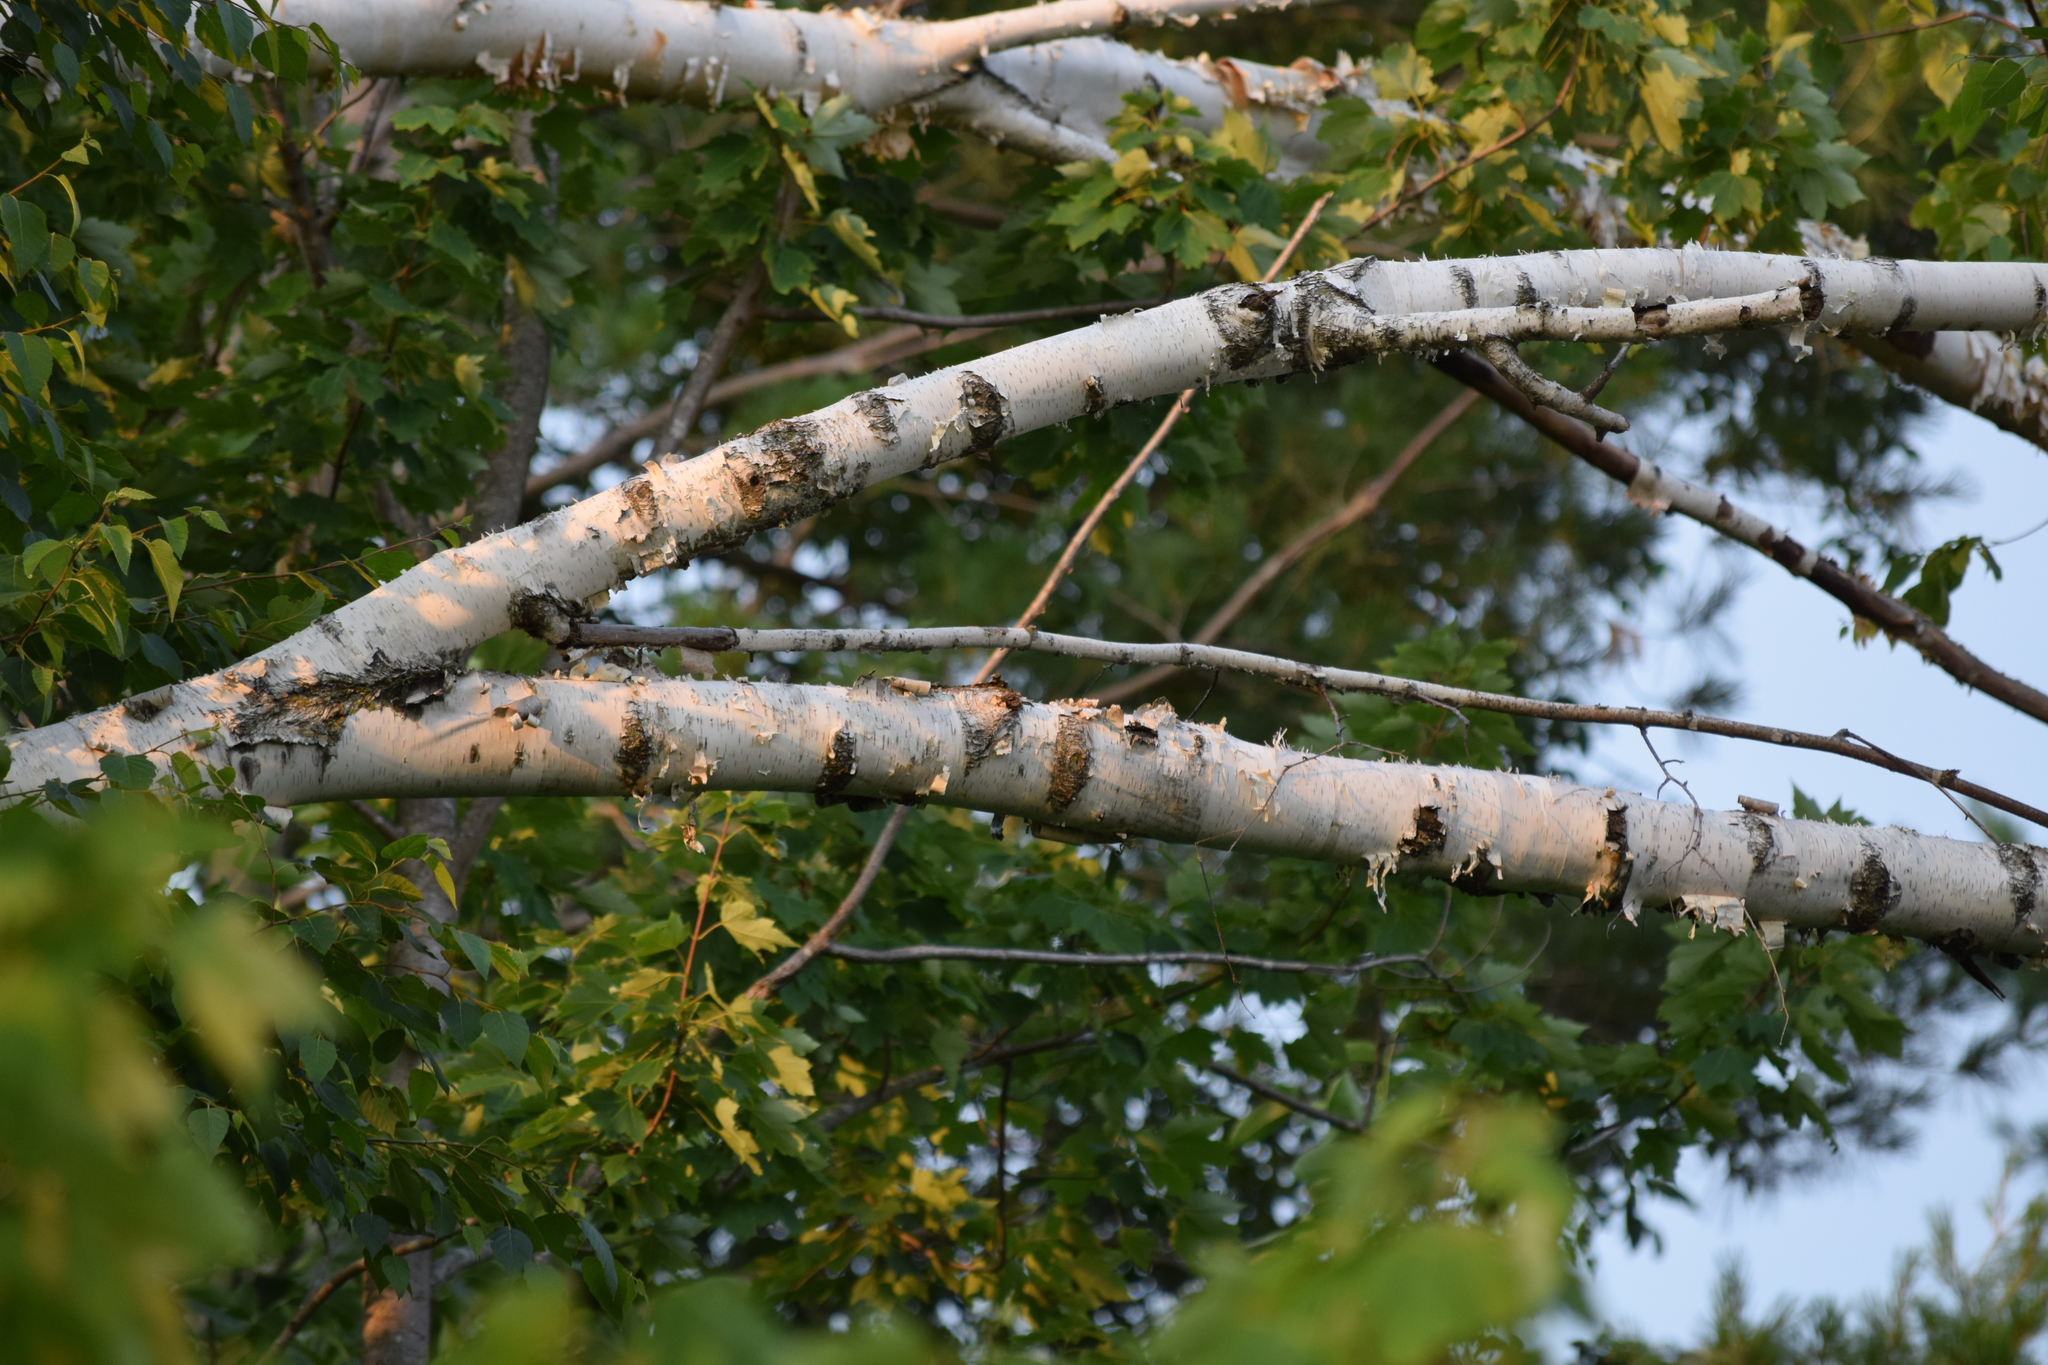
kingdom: Plantae
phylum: Tracheophyta
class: Magnoliopsida
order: Fagales
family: Betulaceae
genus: Betula
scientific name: Betula papyrifera
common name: Paper birch
